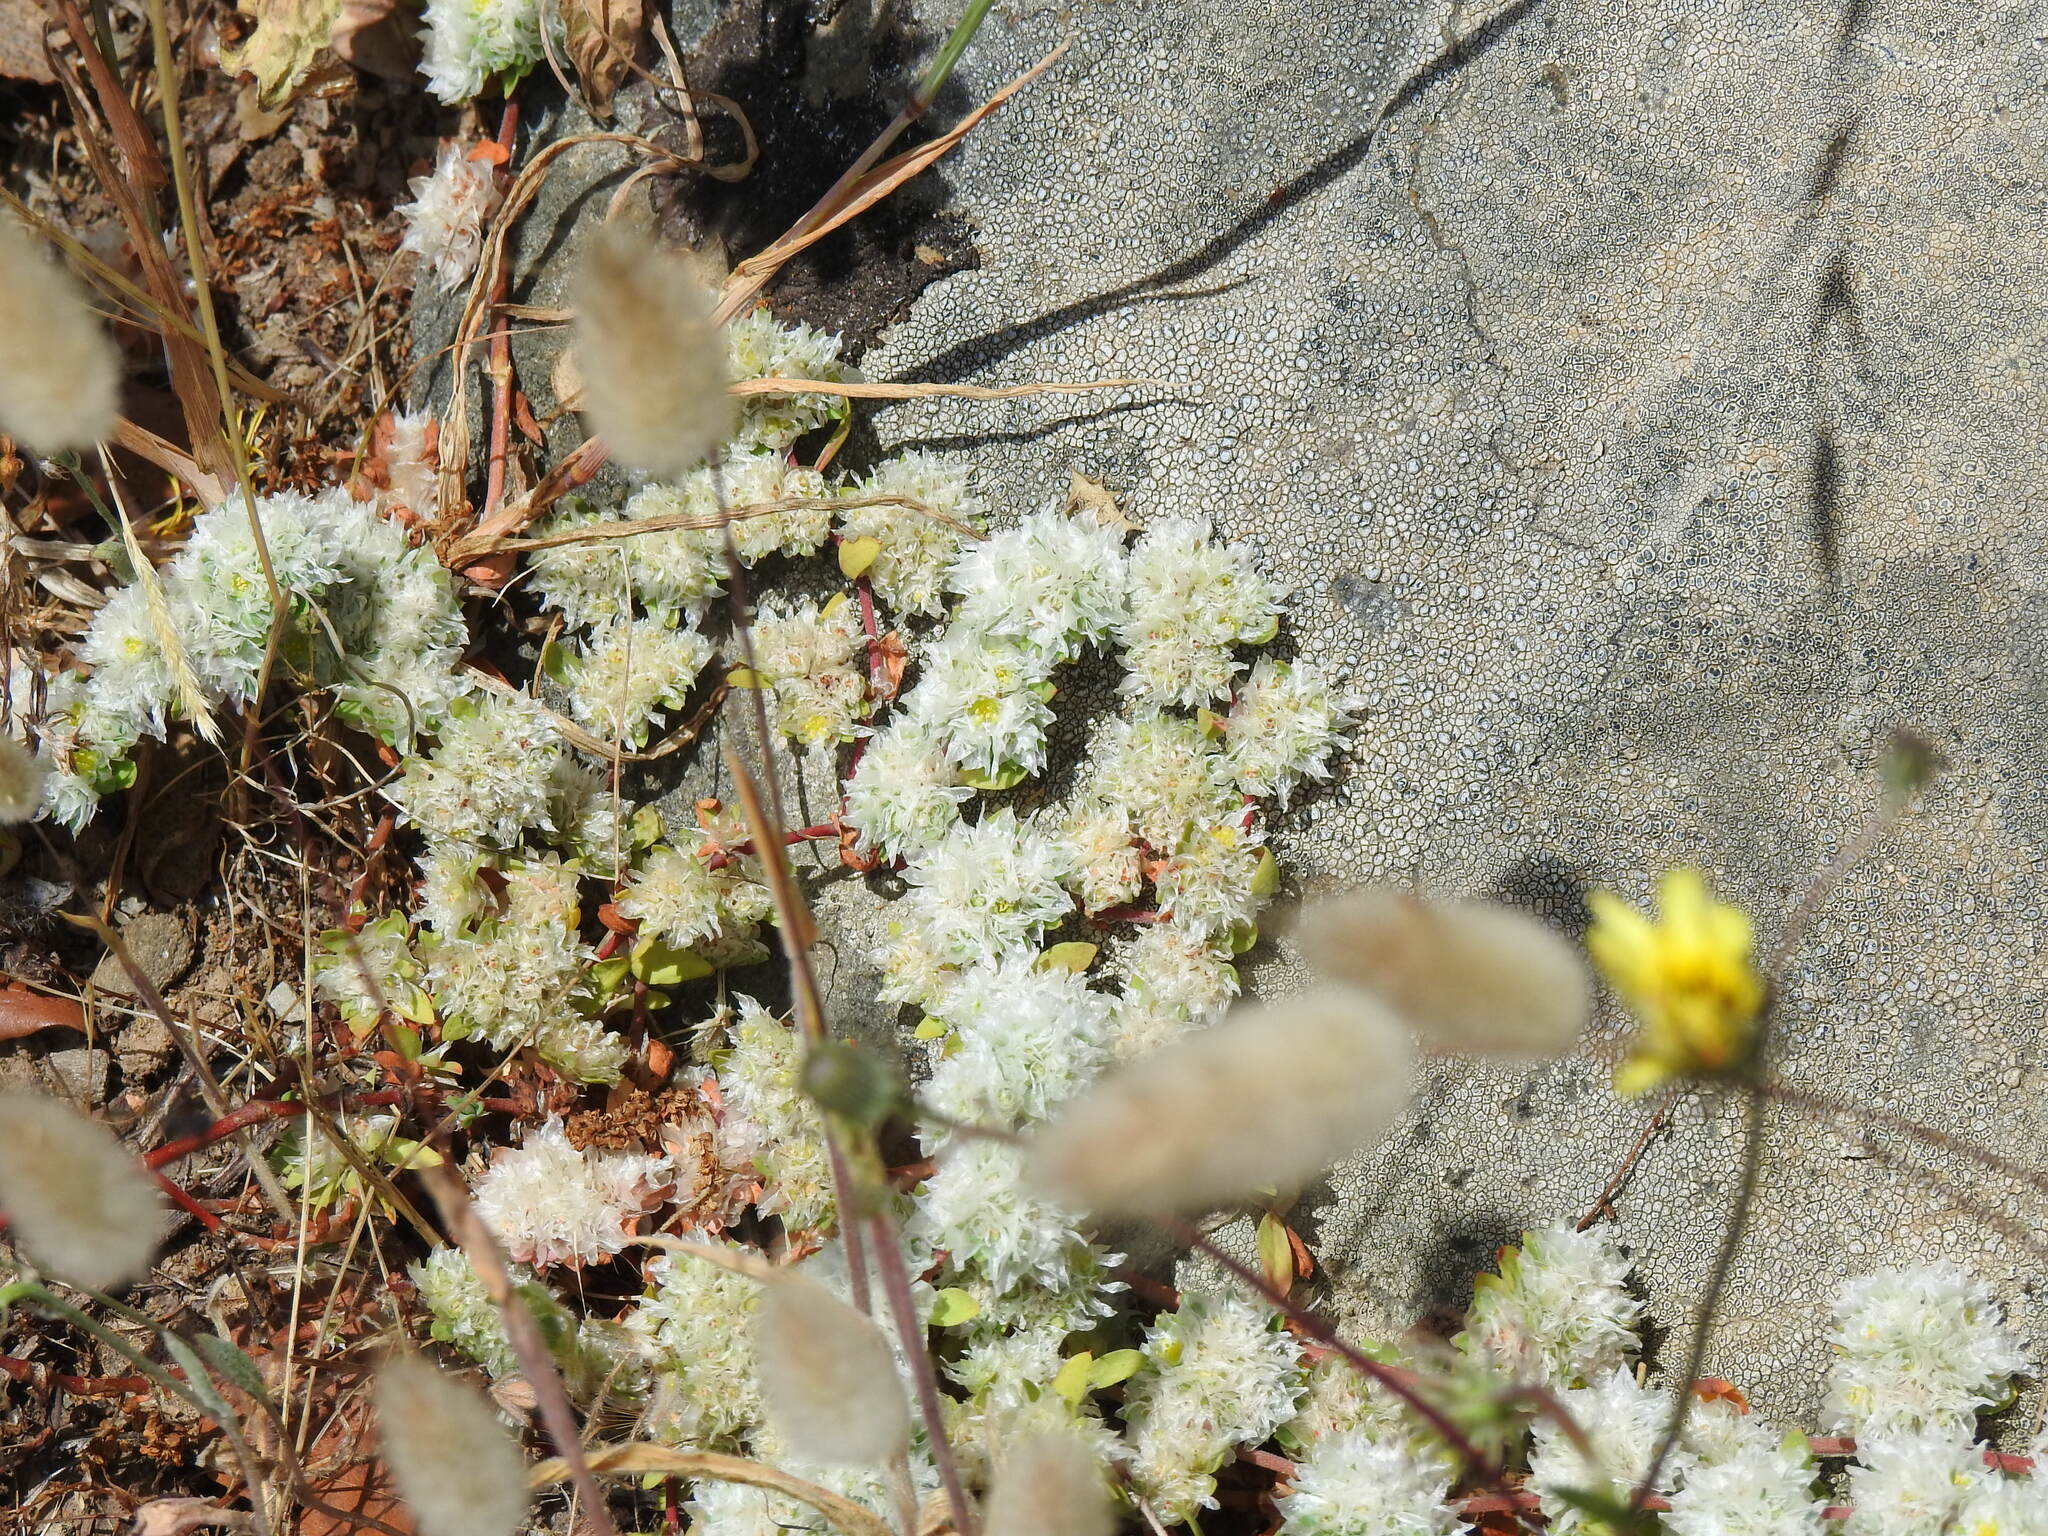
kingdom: Plantae
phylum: Tracheophyta
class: Magnoliopsida
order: Caryophyllales
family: Caryophyllaceae
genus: Paronychia
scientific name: Paronychia argentea
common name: Silver nailroot
